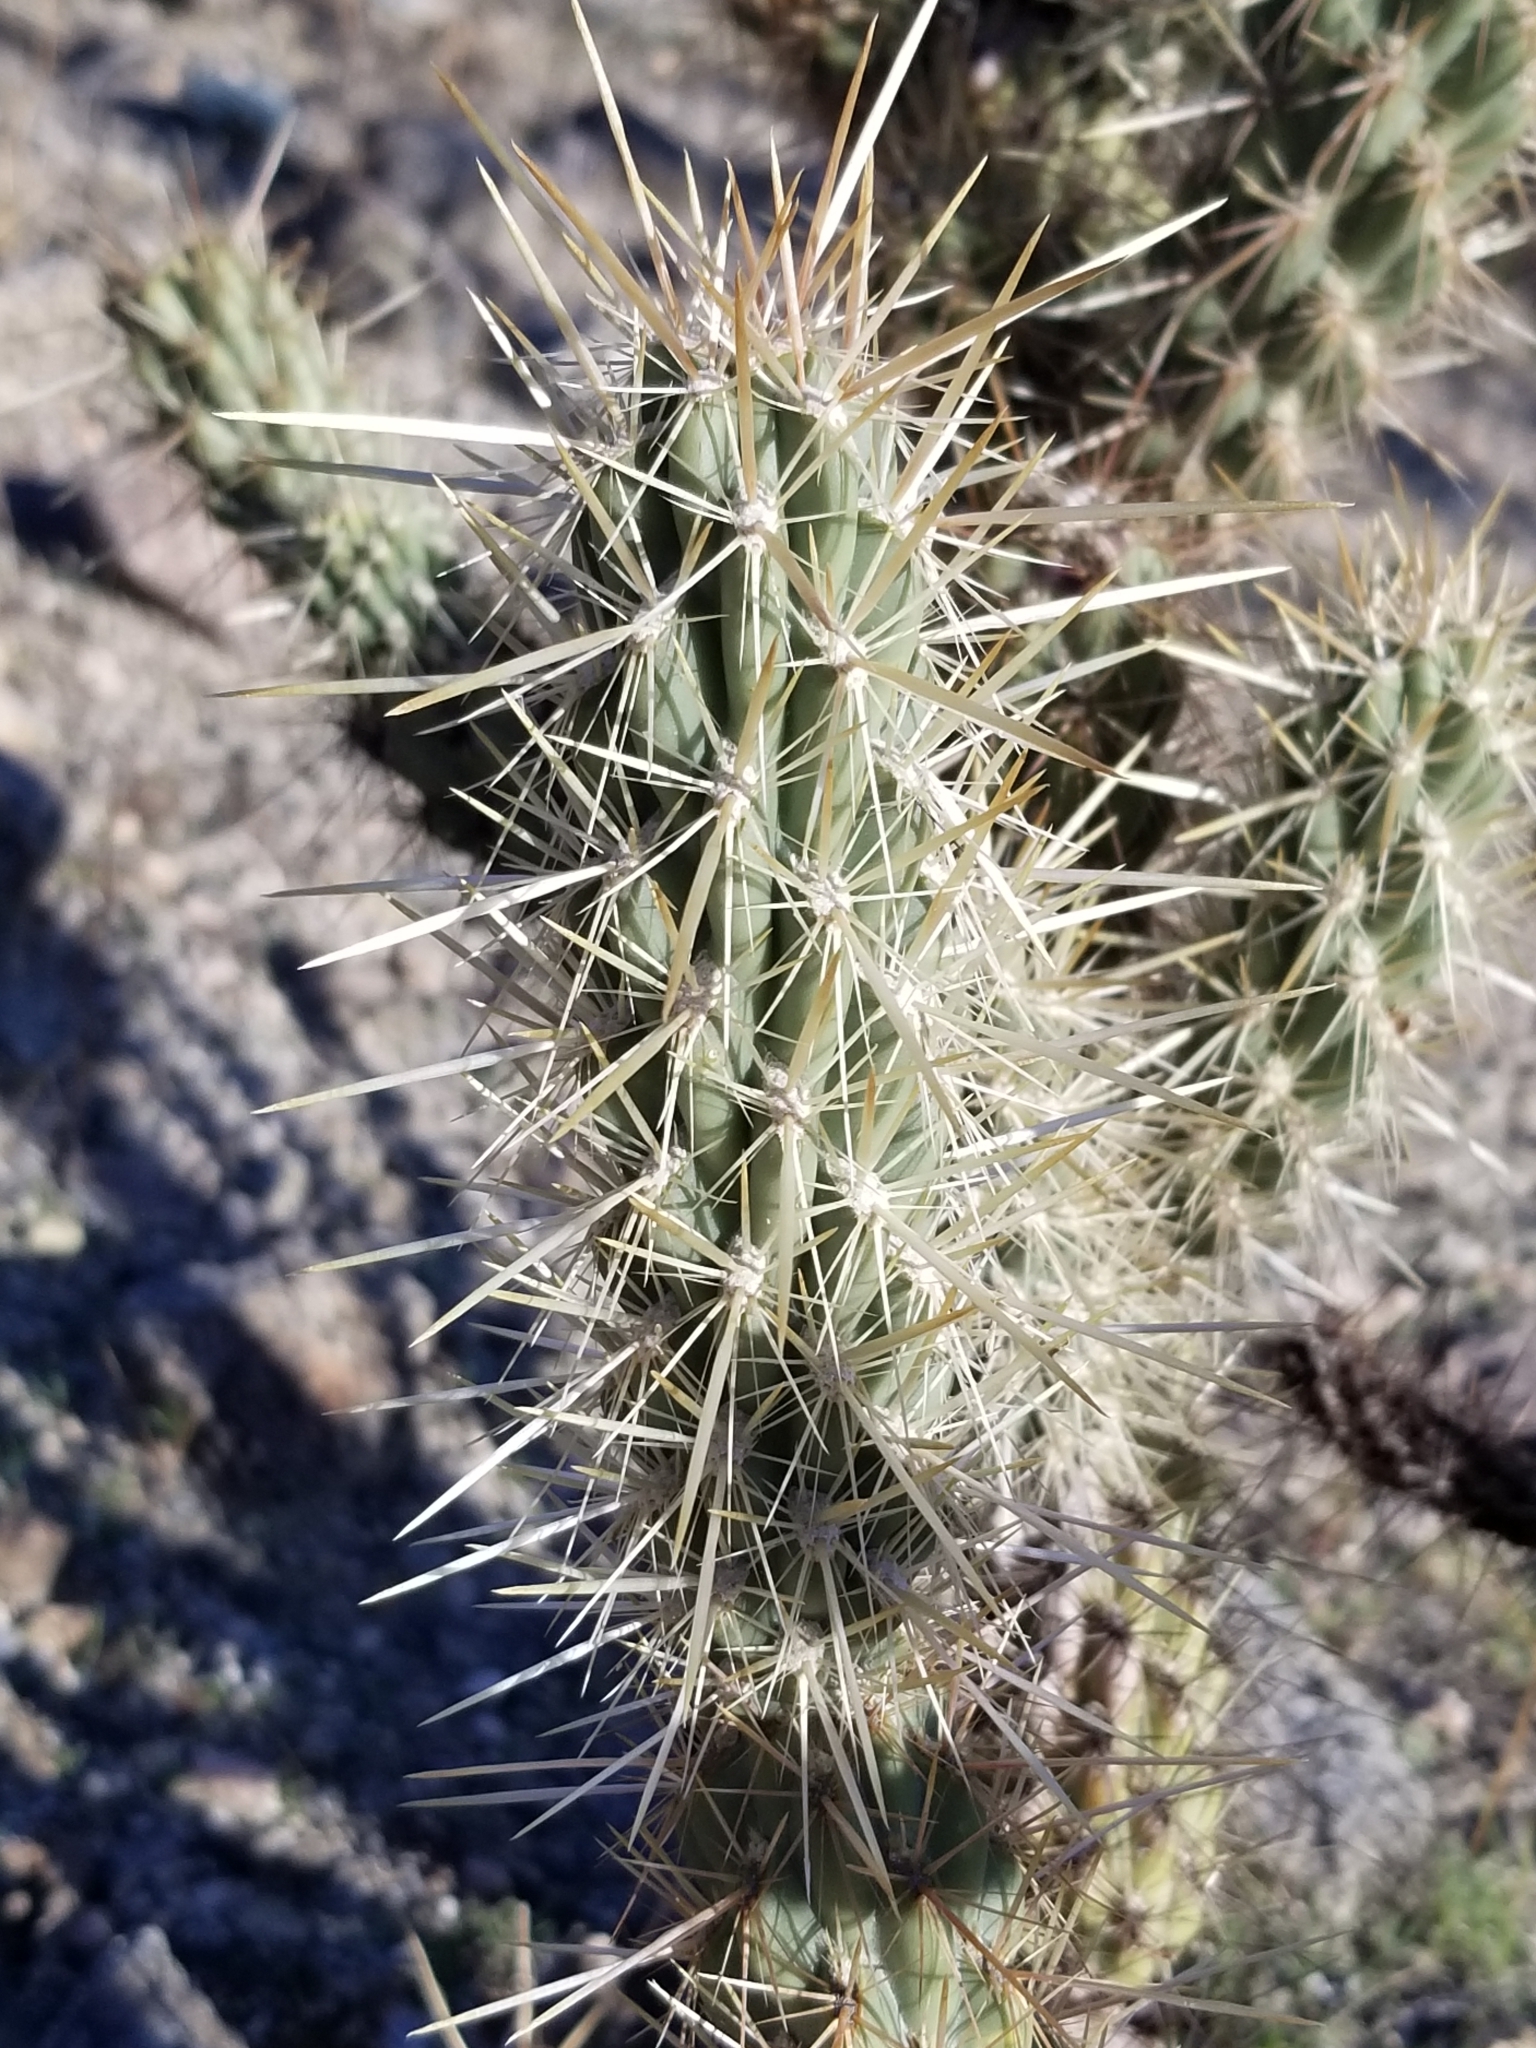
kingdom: Plantae
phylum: Tracheophyta
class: Magnoliopsida
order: Caryophyllales
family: Cactaceae
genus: Cylindropuntia
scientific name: Cylindropuntia ganderi
